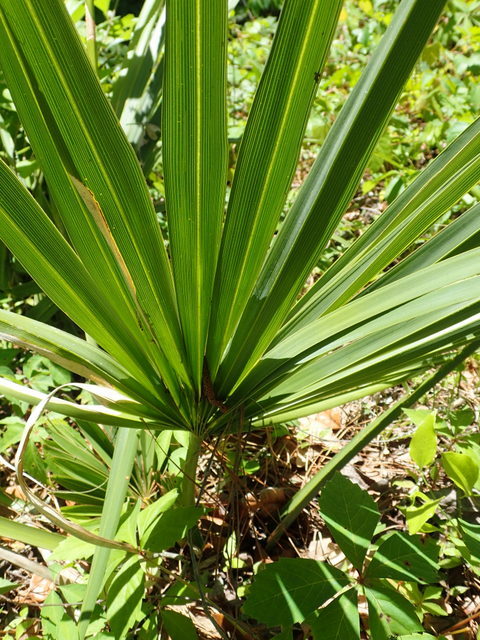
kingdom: Plantae
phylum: Tracheophyta
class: Liliopsida
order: Arecales
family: Arecaceae
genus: Sabal
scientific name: Sabal minor
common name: Dwarf palmetto
